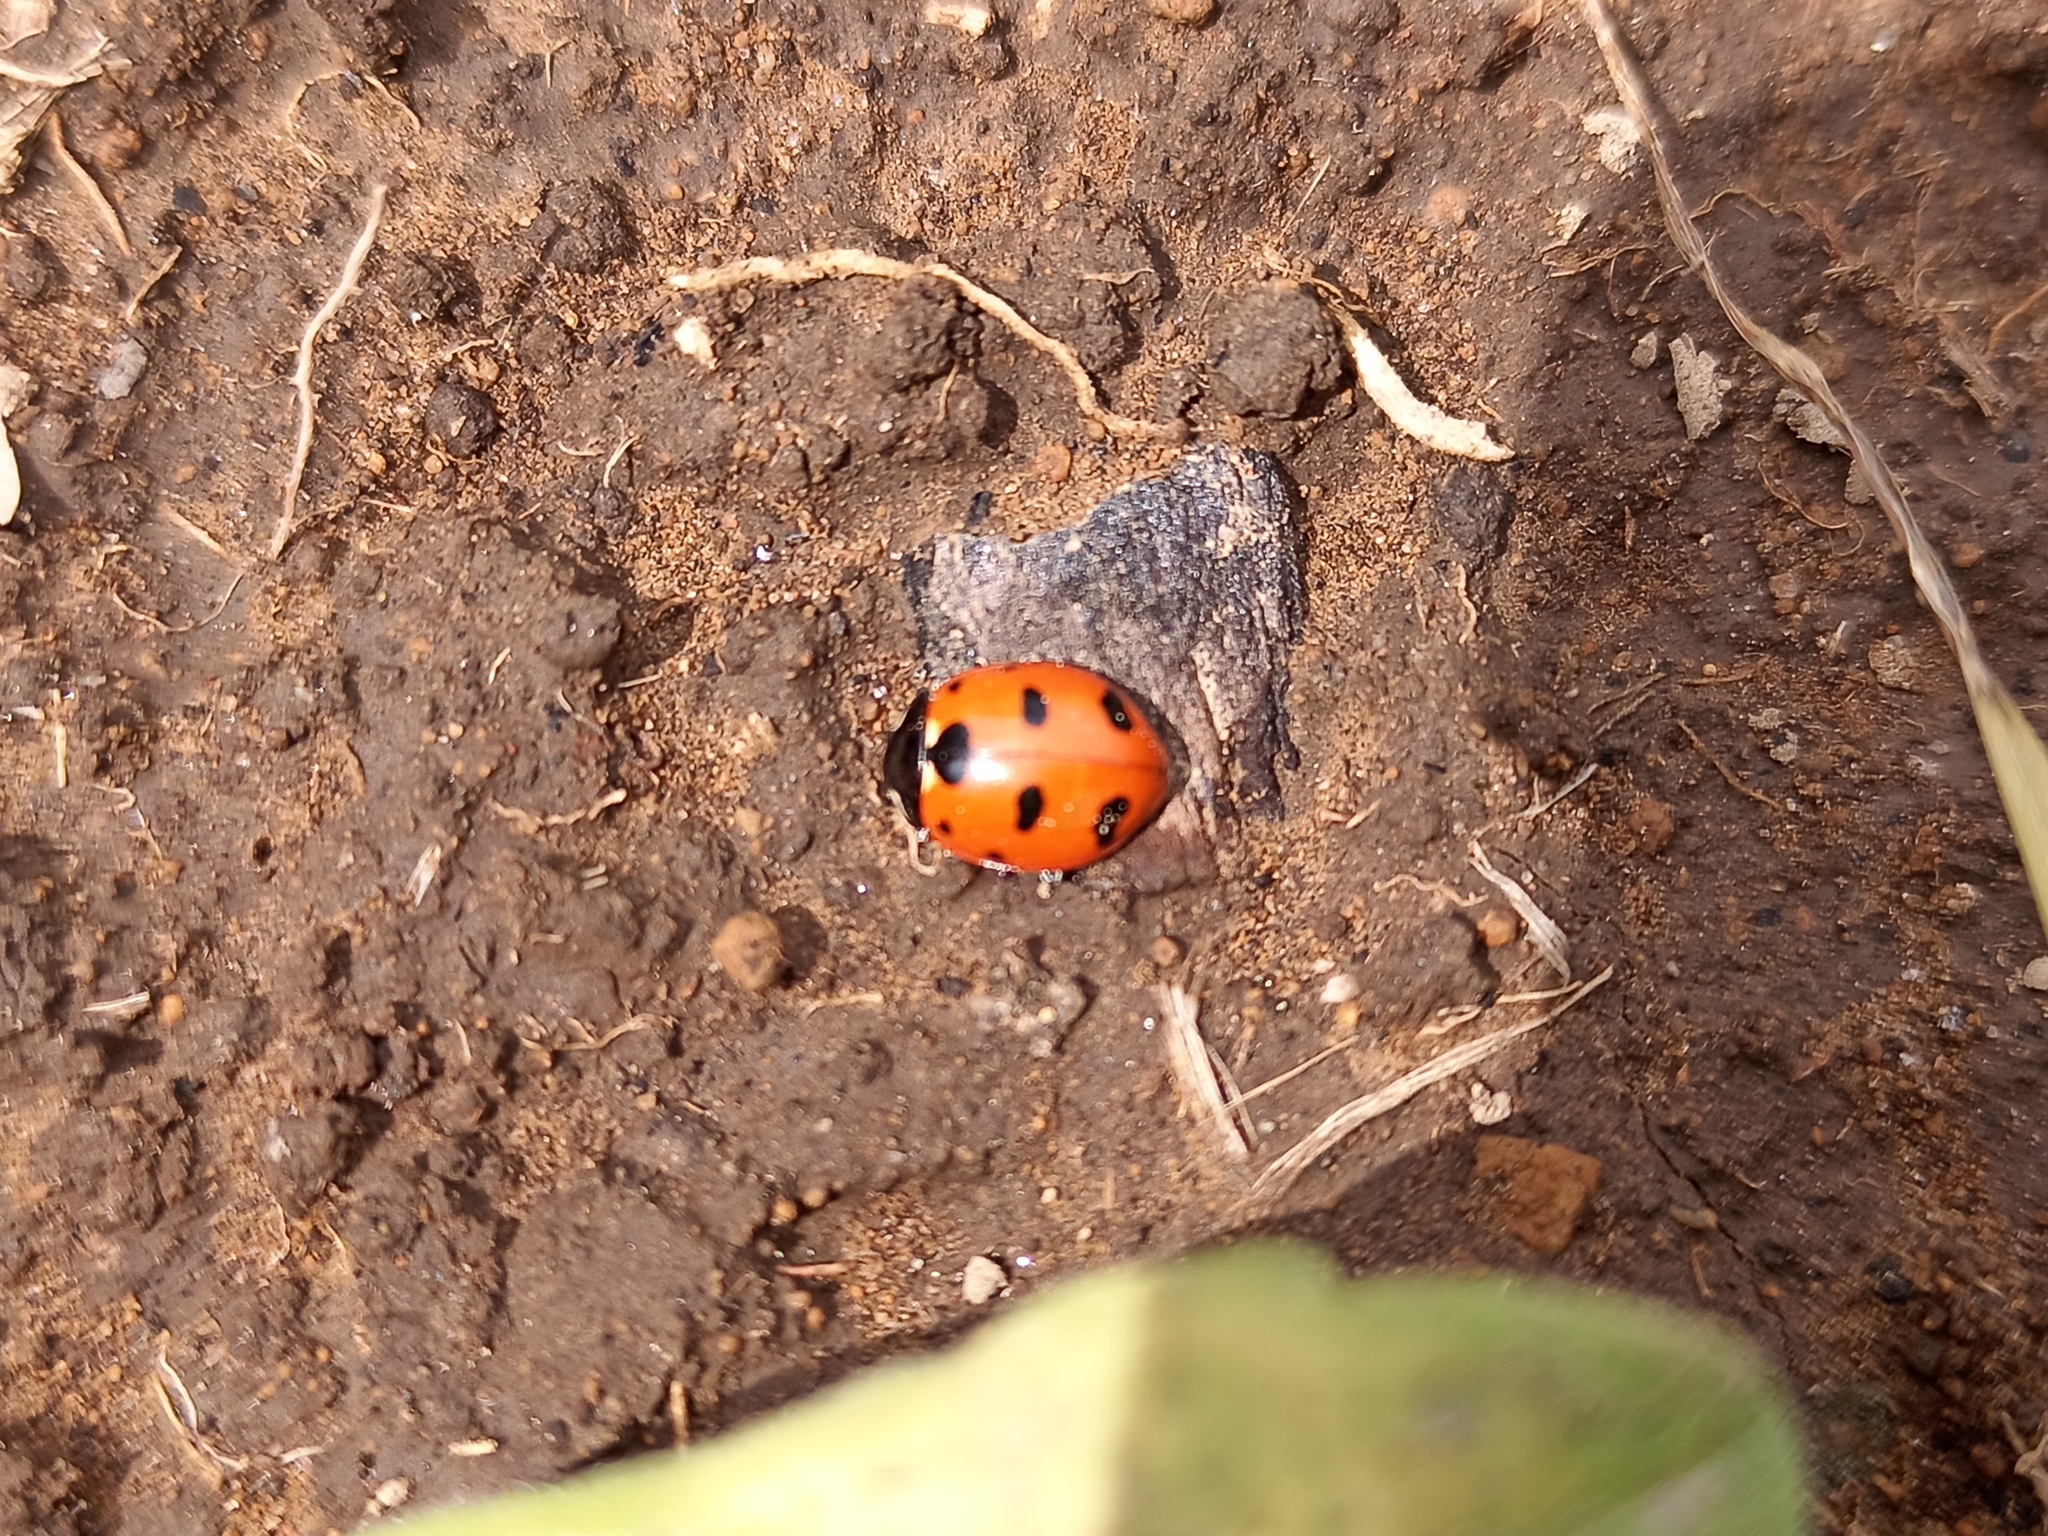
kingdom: Animalia
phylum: Arthropoda
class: Insecta
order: Coleoptera
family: Coccinellidae
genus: Coccinella
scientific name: Coccinella
